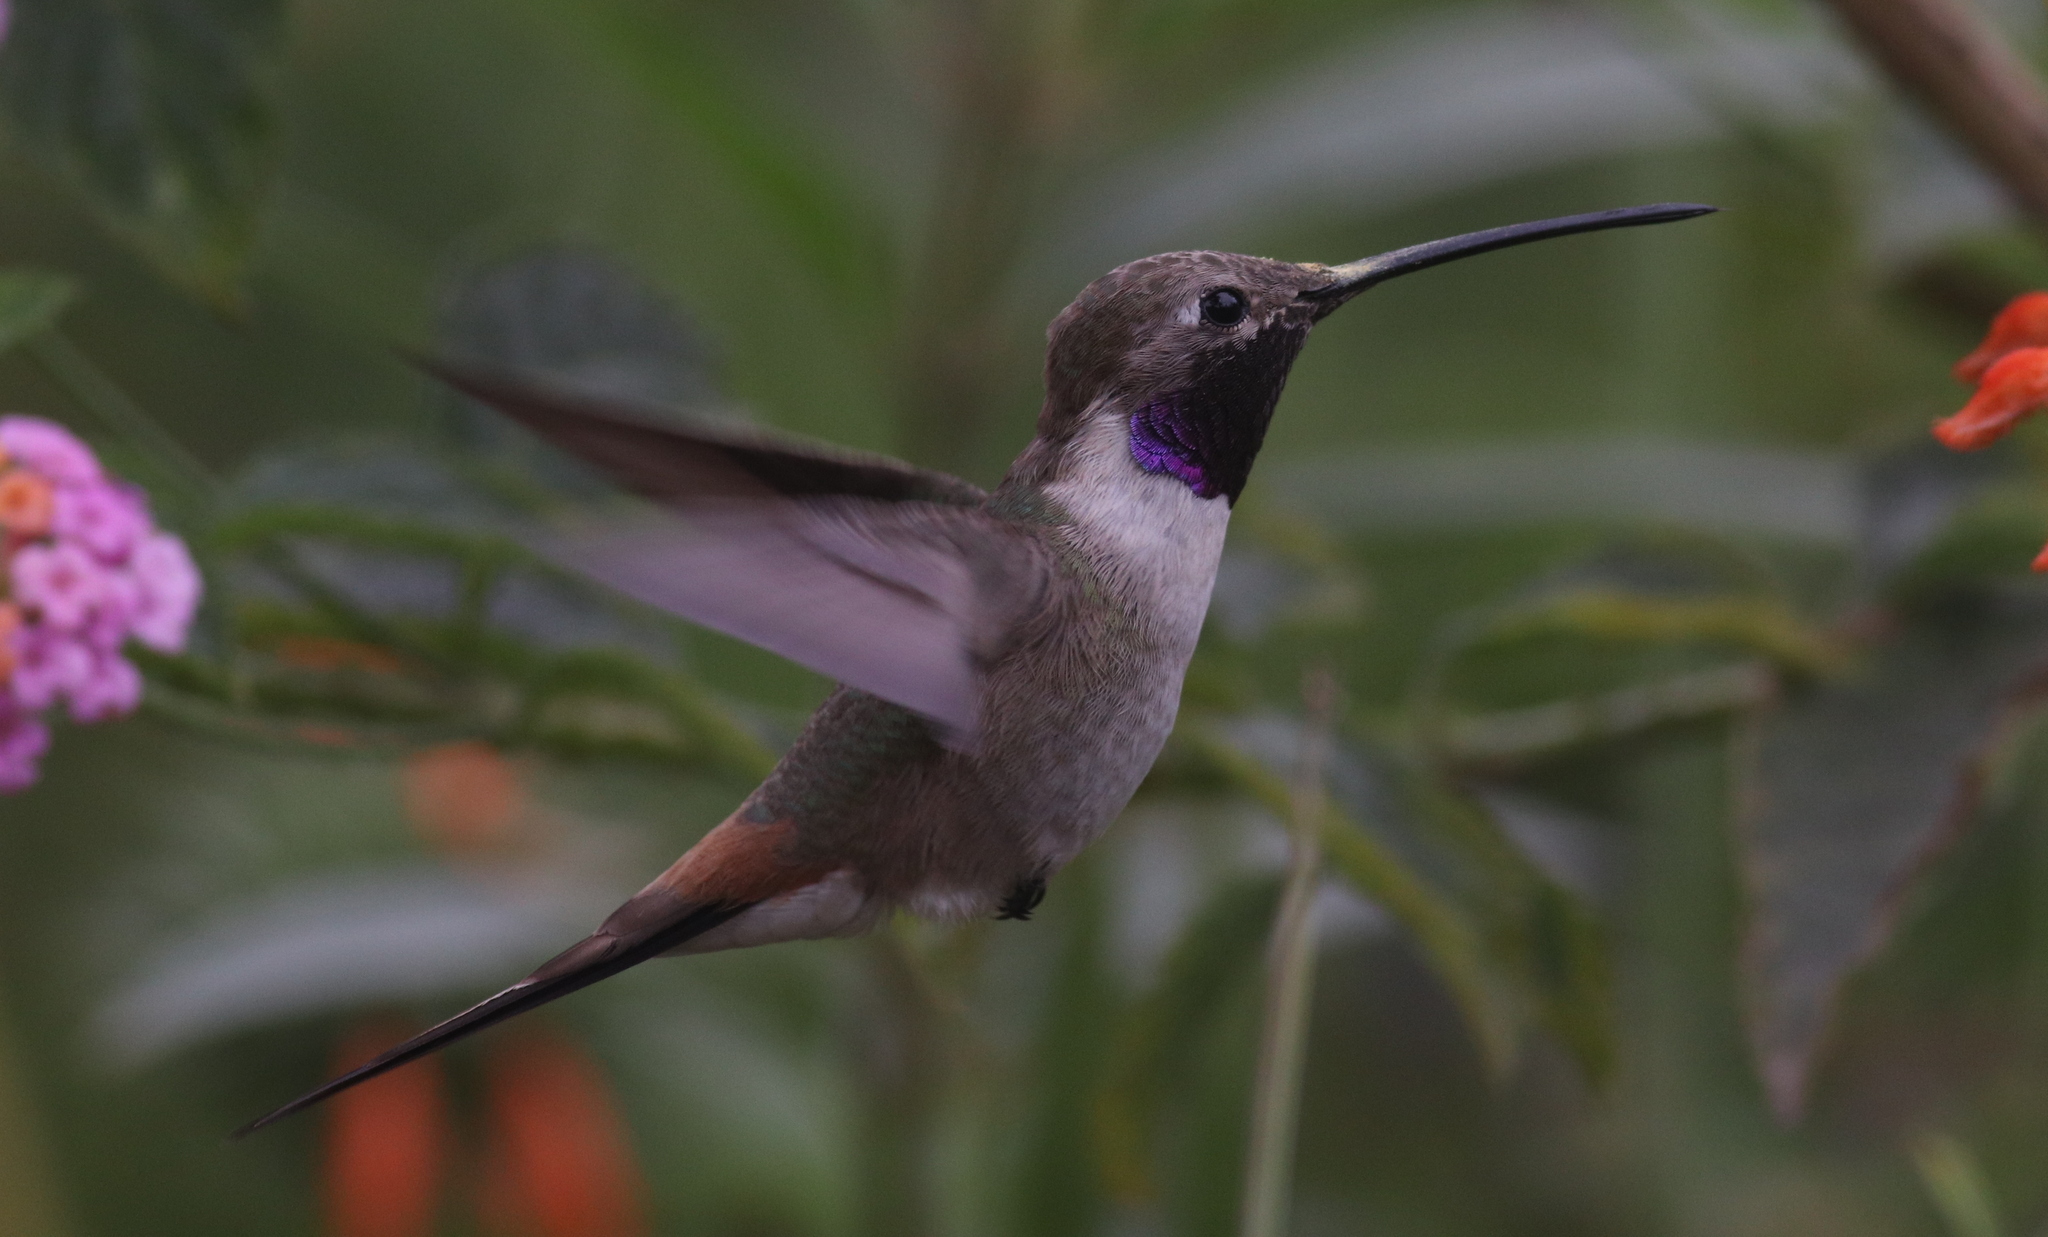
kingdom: Animalia
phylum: Chordata
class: Aves
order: Apodiformes
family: Trochilidae
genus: Rhodopis
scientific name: Rhodopis vesper
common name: Oasis hummingbird
